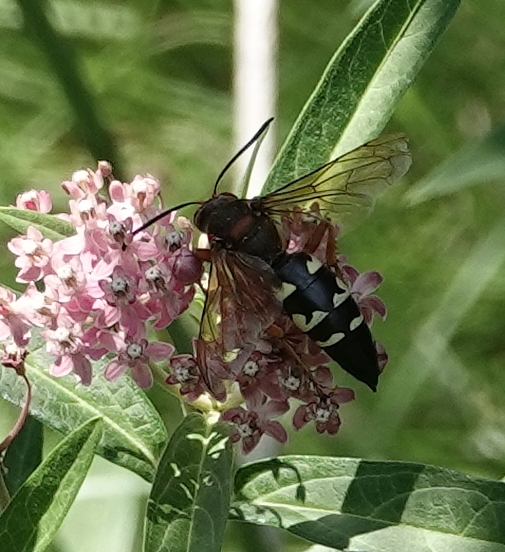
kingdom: Animalia
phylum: Arthropoda
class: Insecta
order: Hymenoptera
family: Crabronidae
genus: Sphecius
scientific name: Sphecius speciosus
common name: Cicada killer
